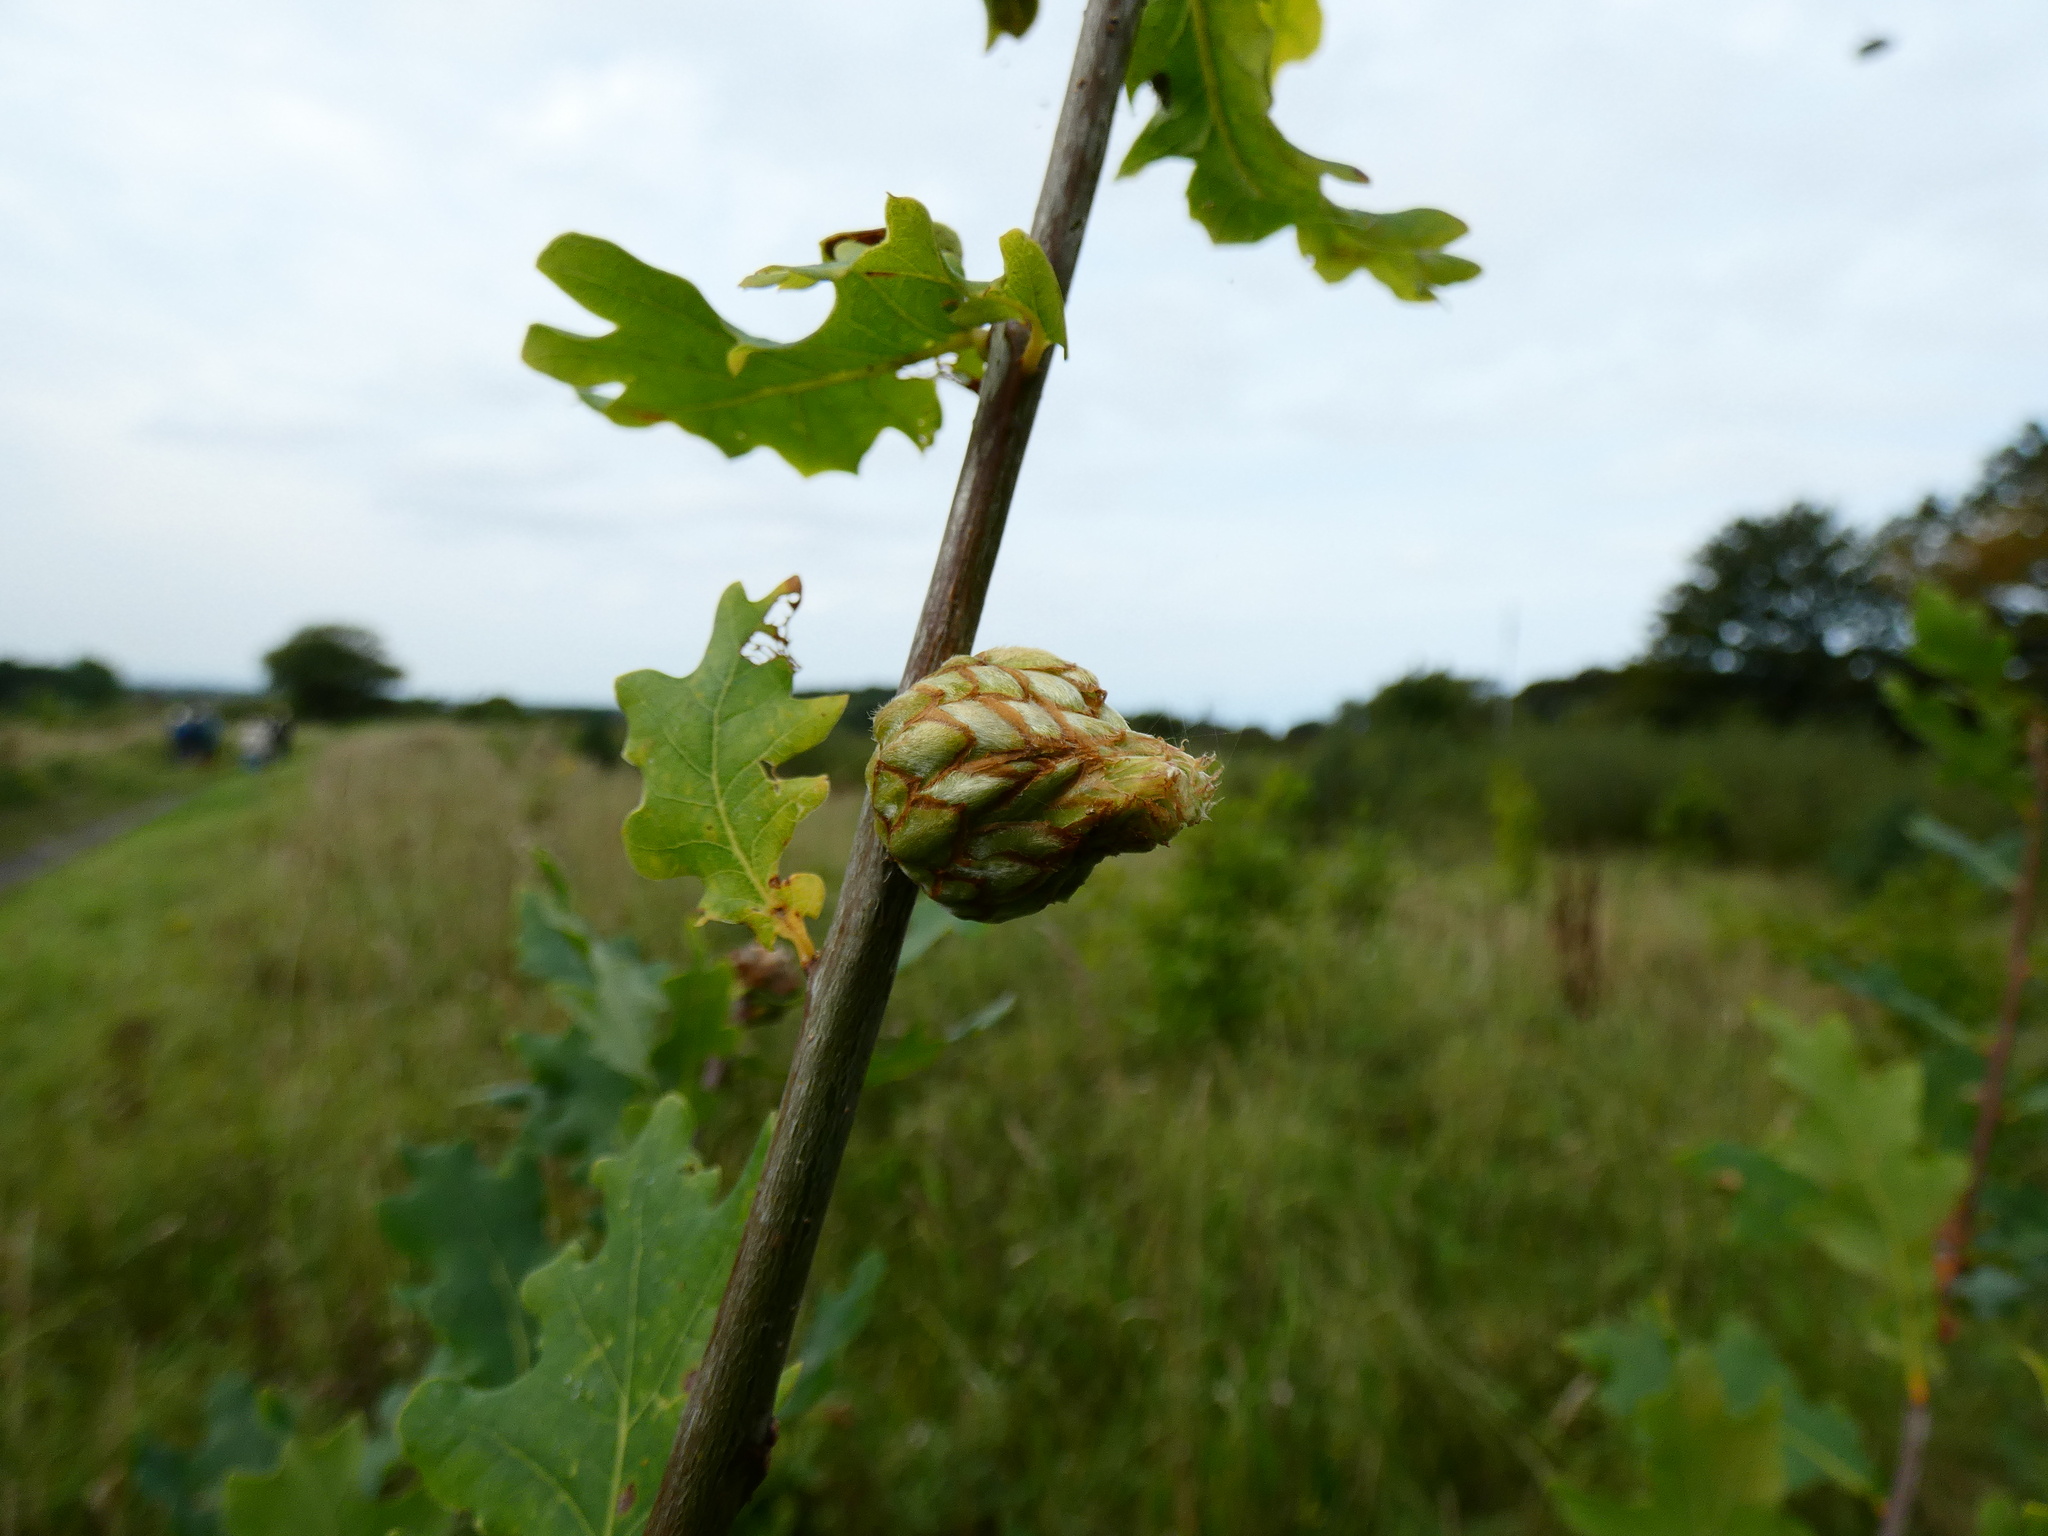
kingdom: Animalia
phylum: Arthropoda
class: Insecta
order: Hymenoptera
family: Cynipidae
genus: Andricus
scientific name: Andricus foecundatrix
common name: Artichoke gall
